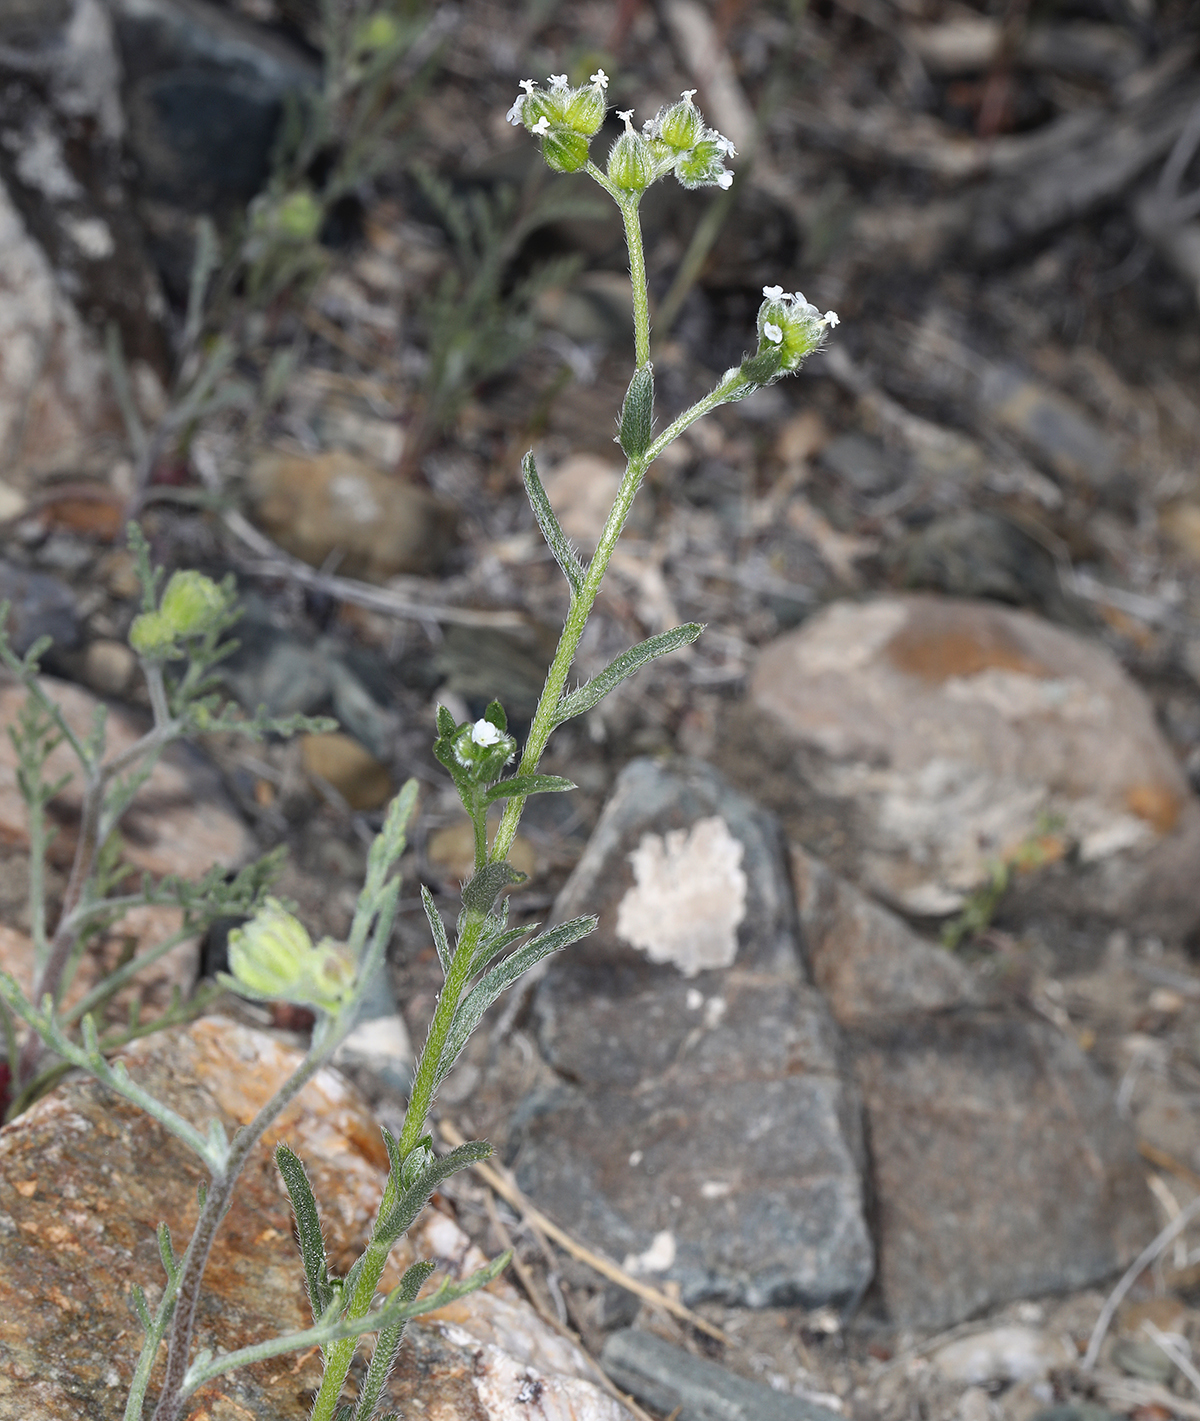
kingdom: Plantae
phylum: Tracheophyta
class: Magnoliopsida
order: Boraginales
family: Boraginaceae
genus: Cryptantha
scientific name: Cryptantha pterocarya
